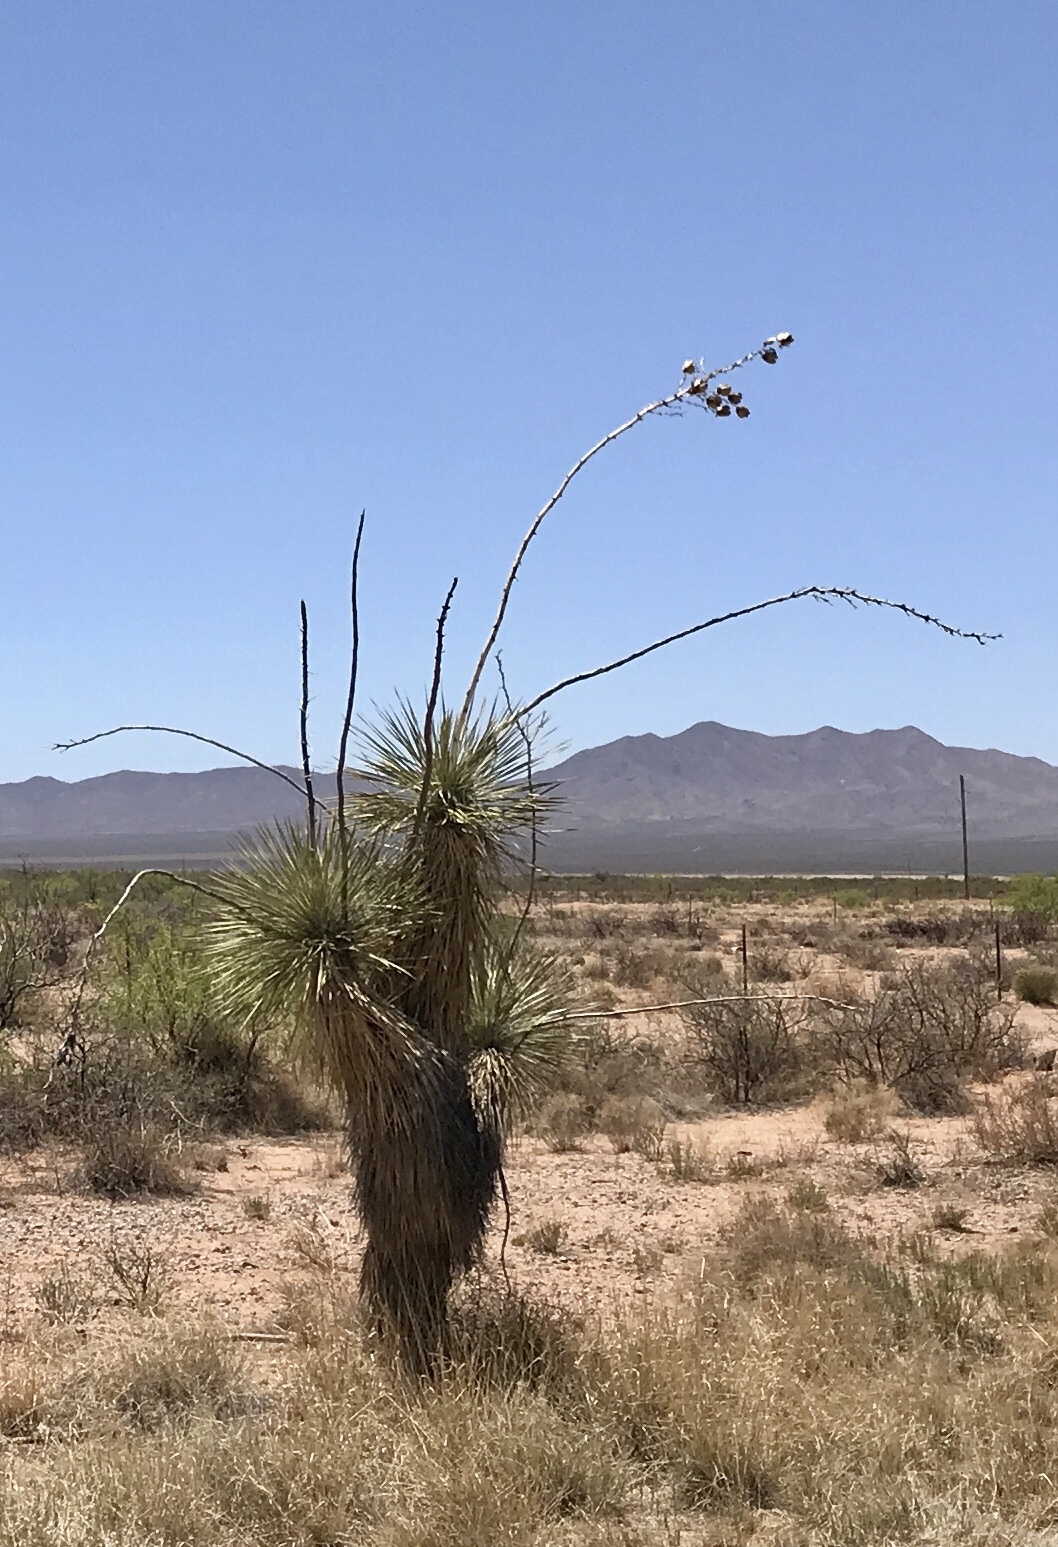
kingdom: Plantae
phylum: Tracheophyta
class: Liliopsida
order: Asparagales
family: Asparagaceae
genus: Yucca
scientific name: Yucca elata
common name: Palmella
